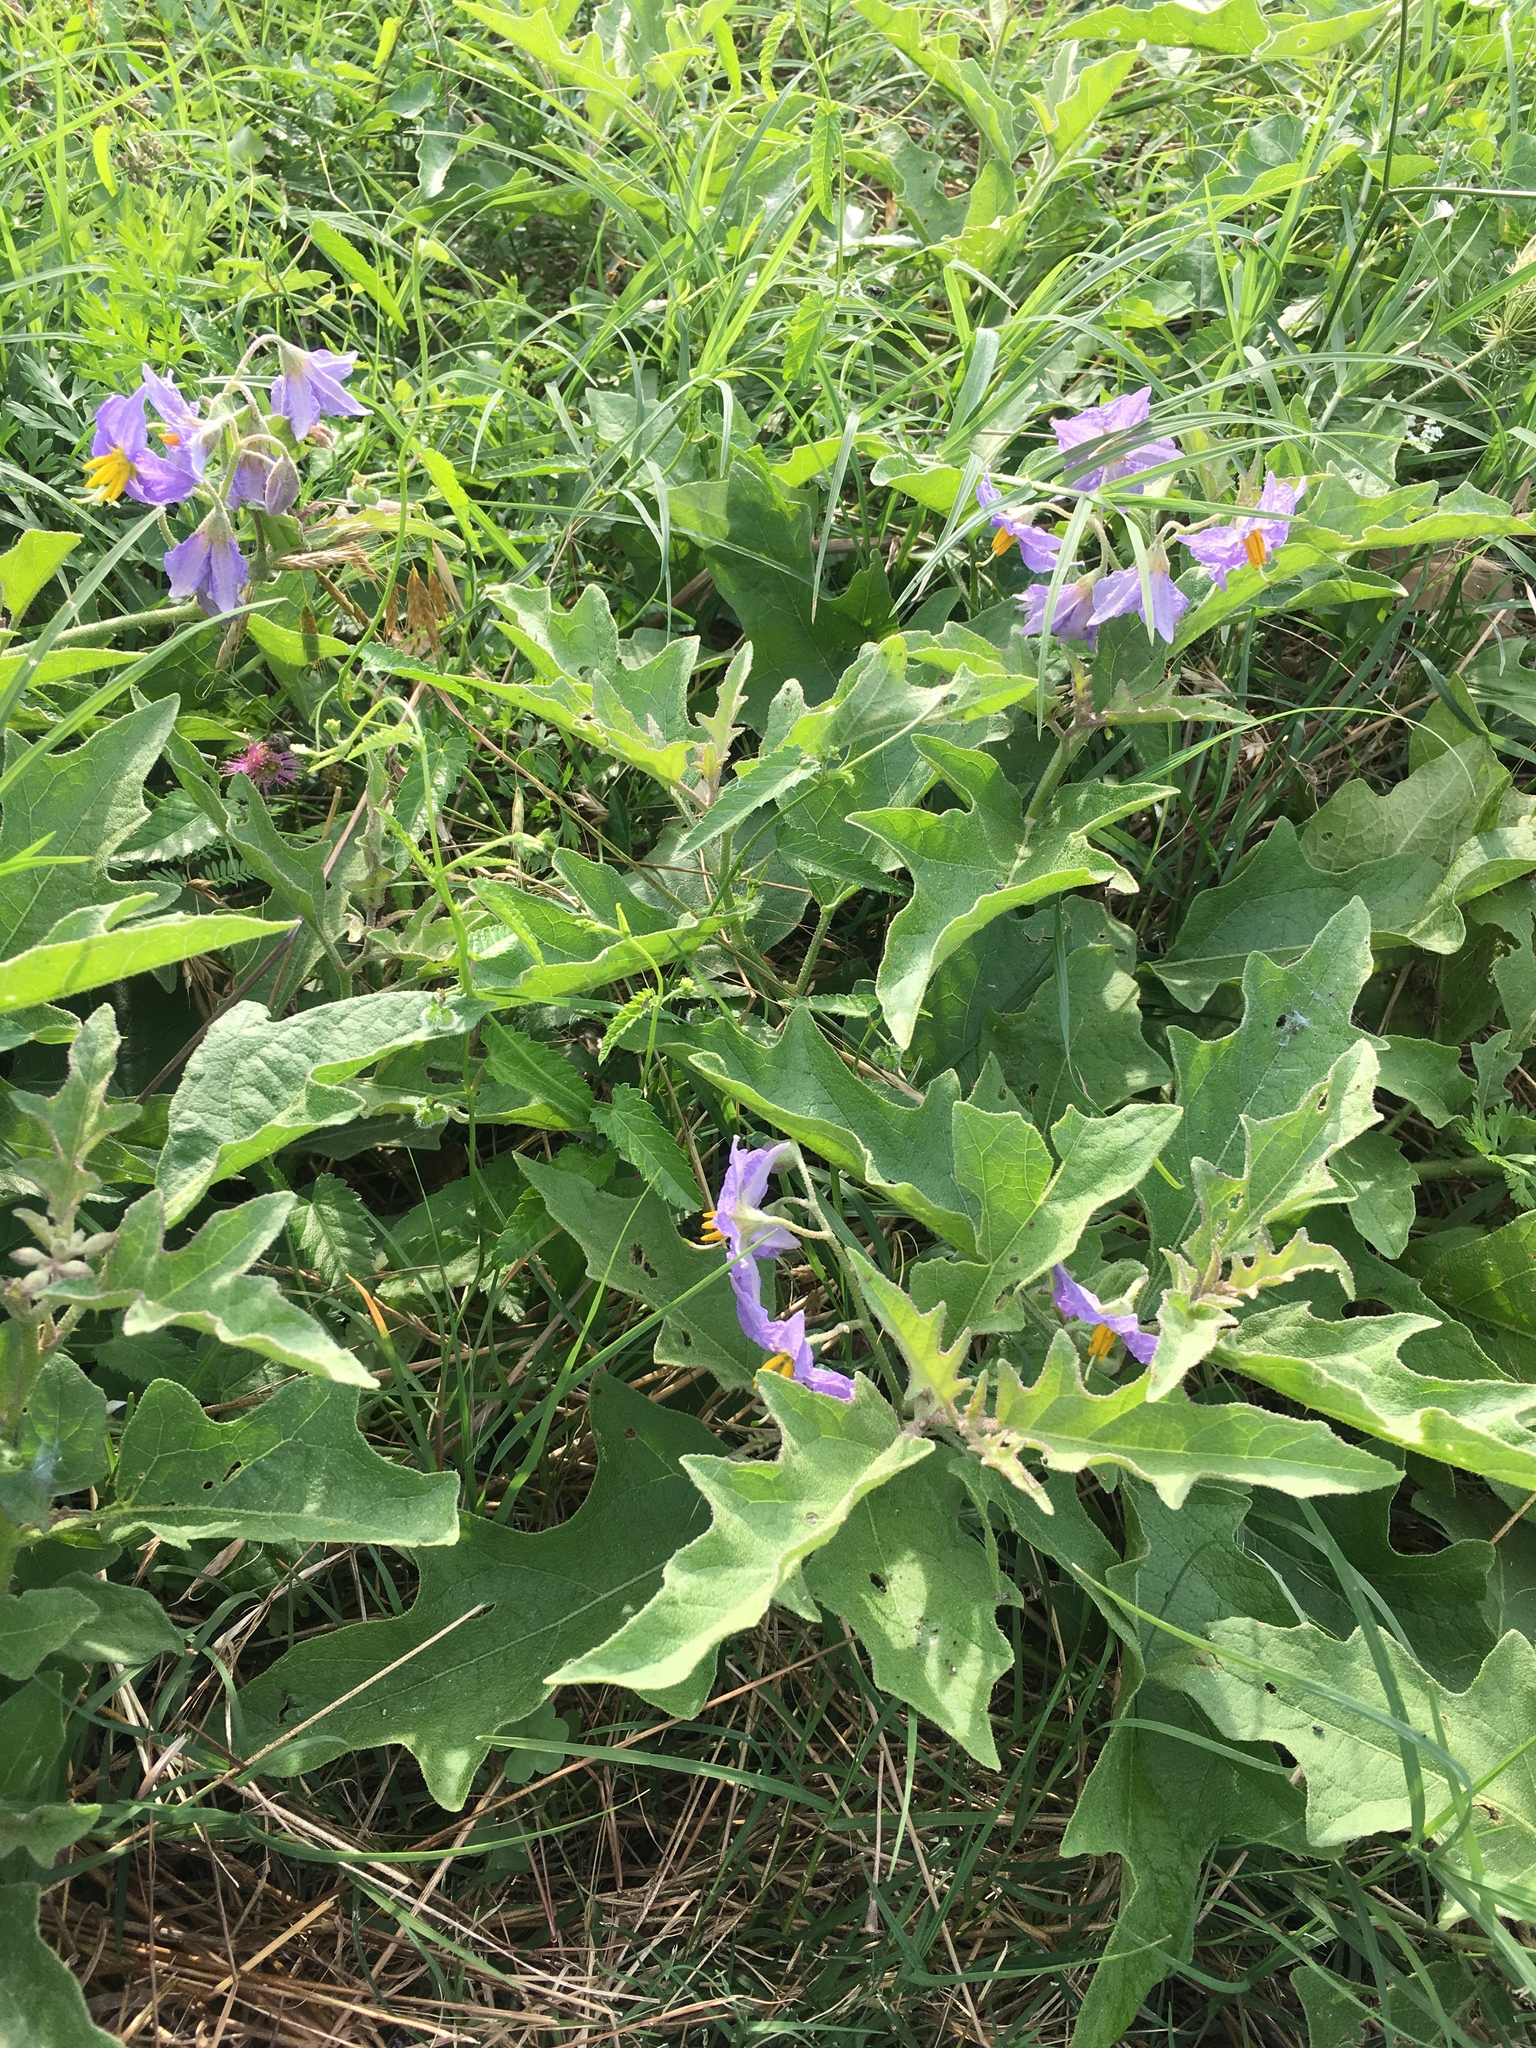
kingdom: Plantae
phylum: Tracheophyta
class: Magnoliopsida
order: Solanales
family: Solanaceae
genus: Solanum
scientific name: Solanum dimidiatum
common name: Carolina horse-nettle
